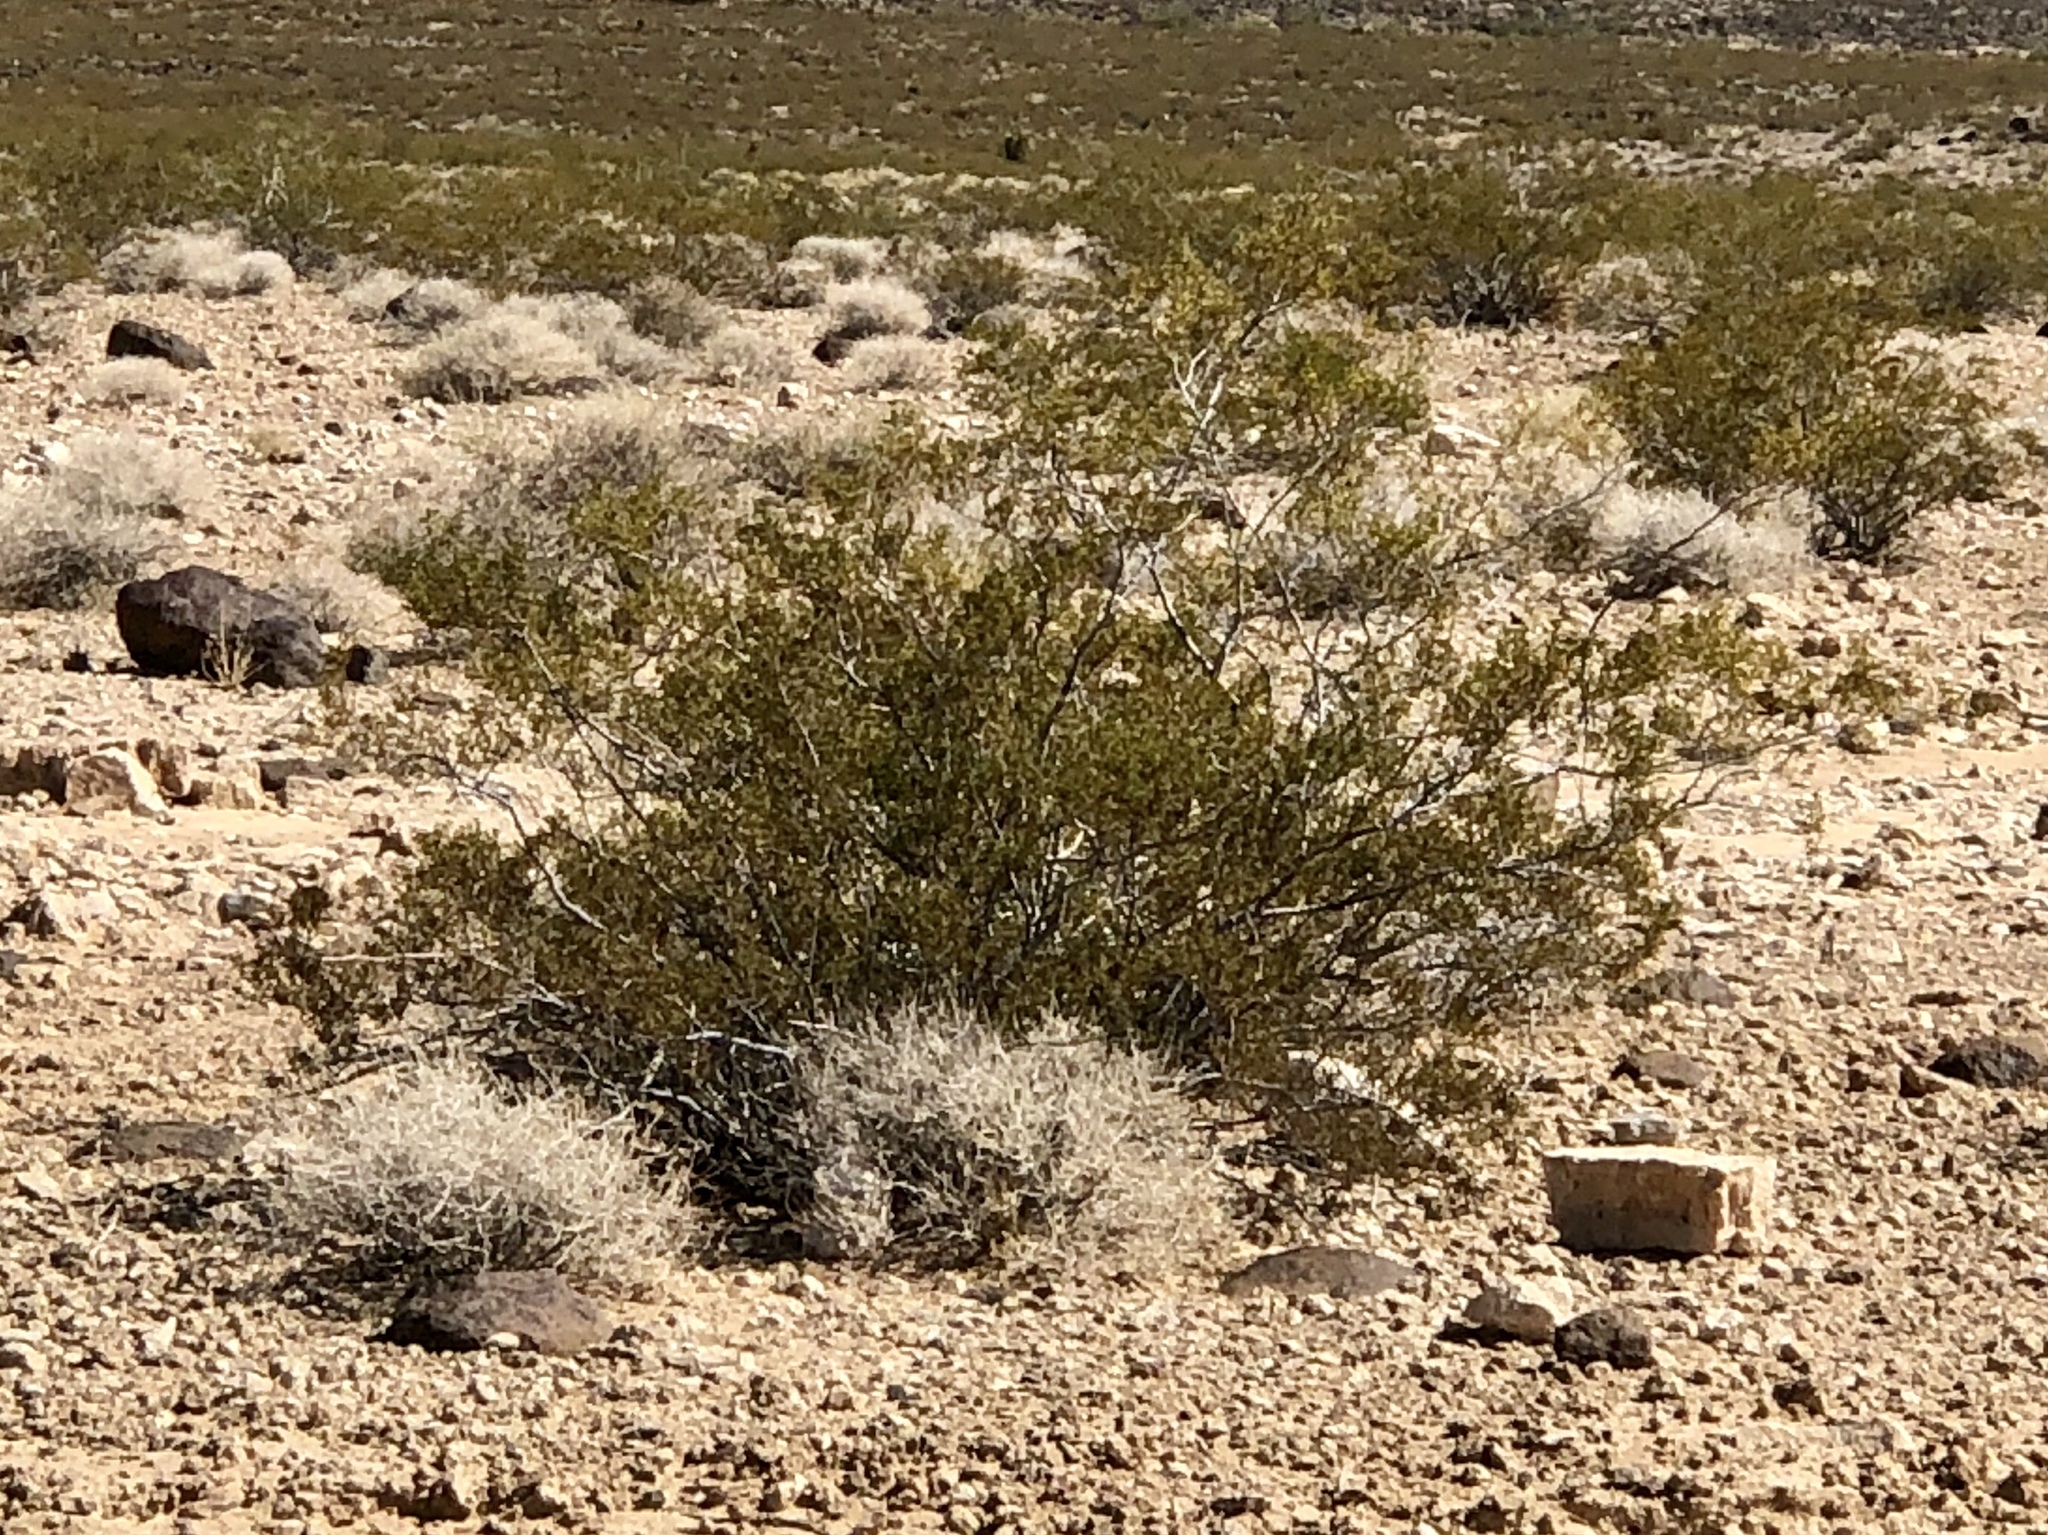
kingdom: Plantae
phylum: Tracheophyta
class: Magnoliopsida
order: Zygophyllales
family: Zygophyllaceae
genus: Larrea
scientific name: Larrea tridentata
